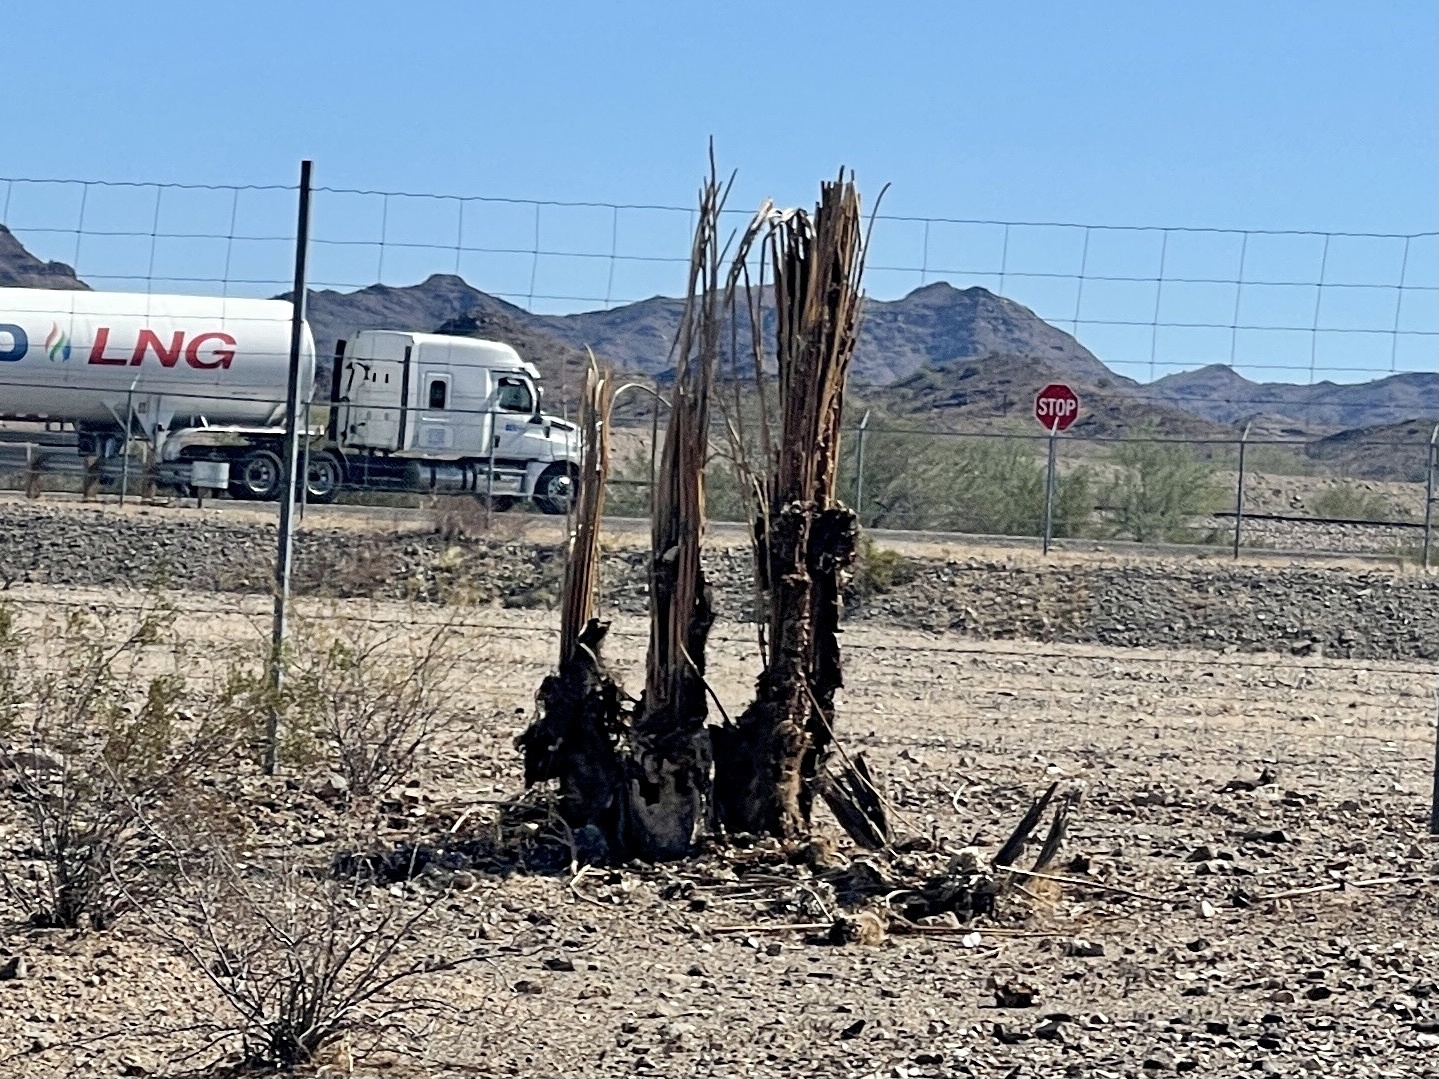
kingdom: Plantae
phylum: Tracheophyta
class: Magnoliopsida
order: Caryophyllales
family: Cactaceae
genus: Carnegiea
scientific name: Carnegiea gigantea
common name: Saguaro
